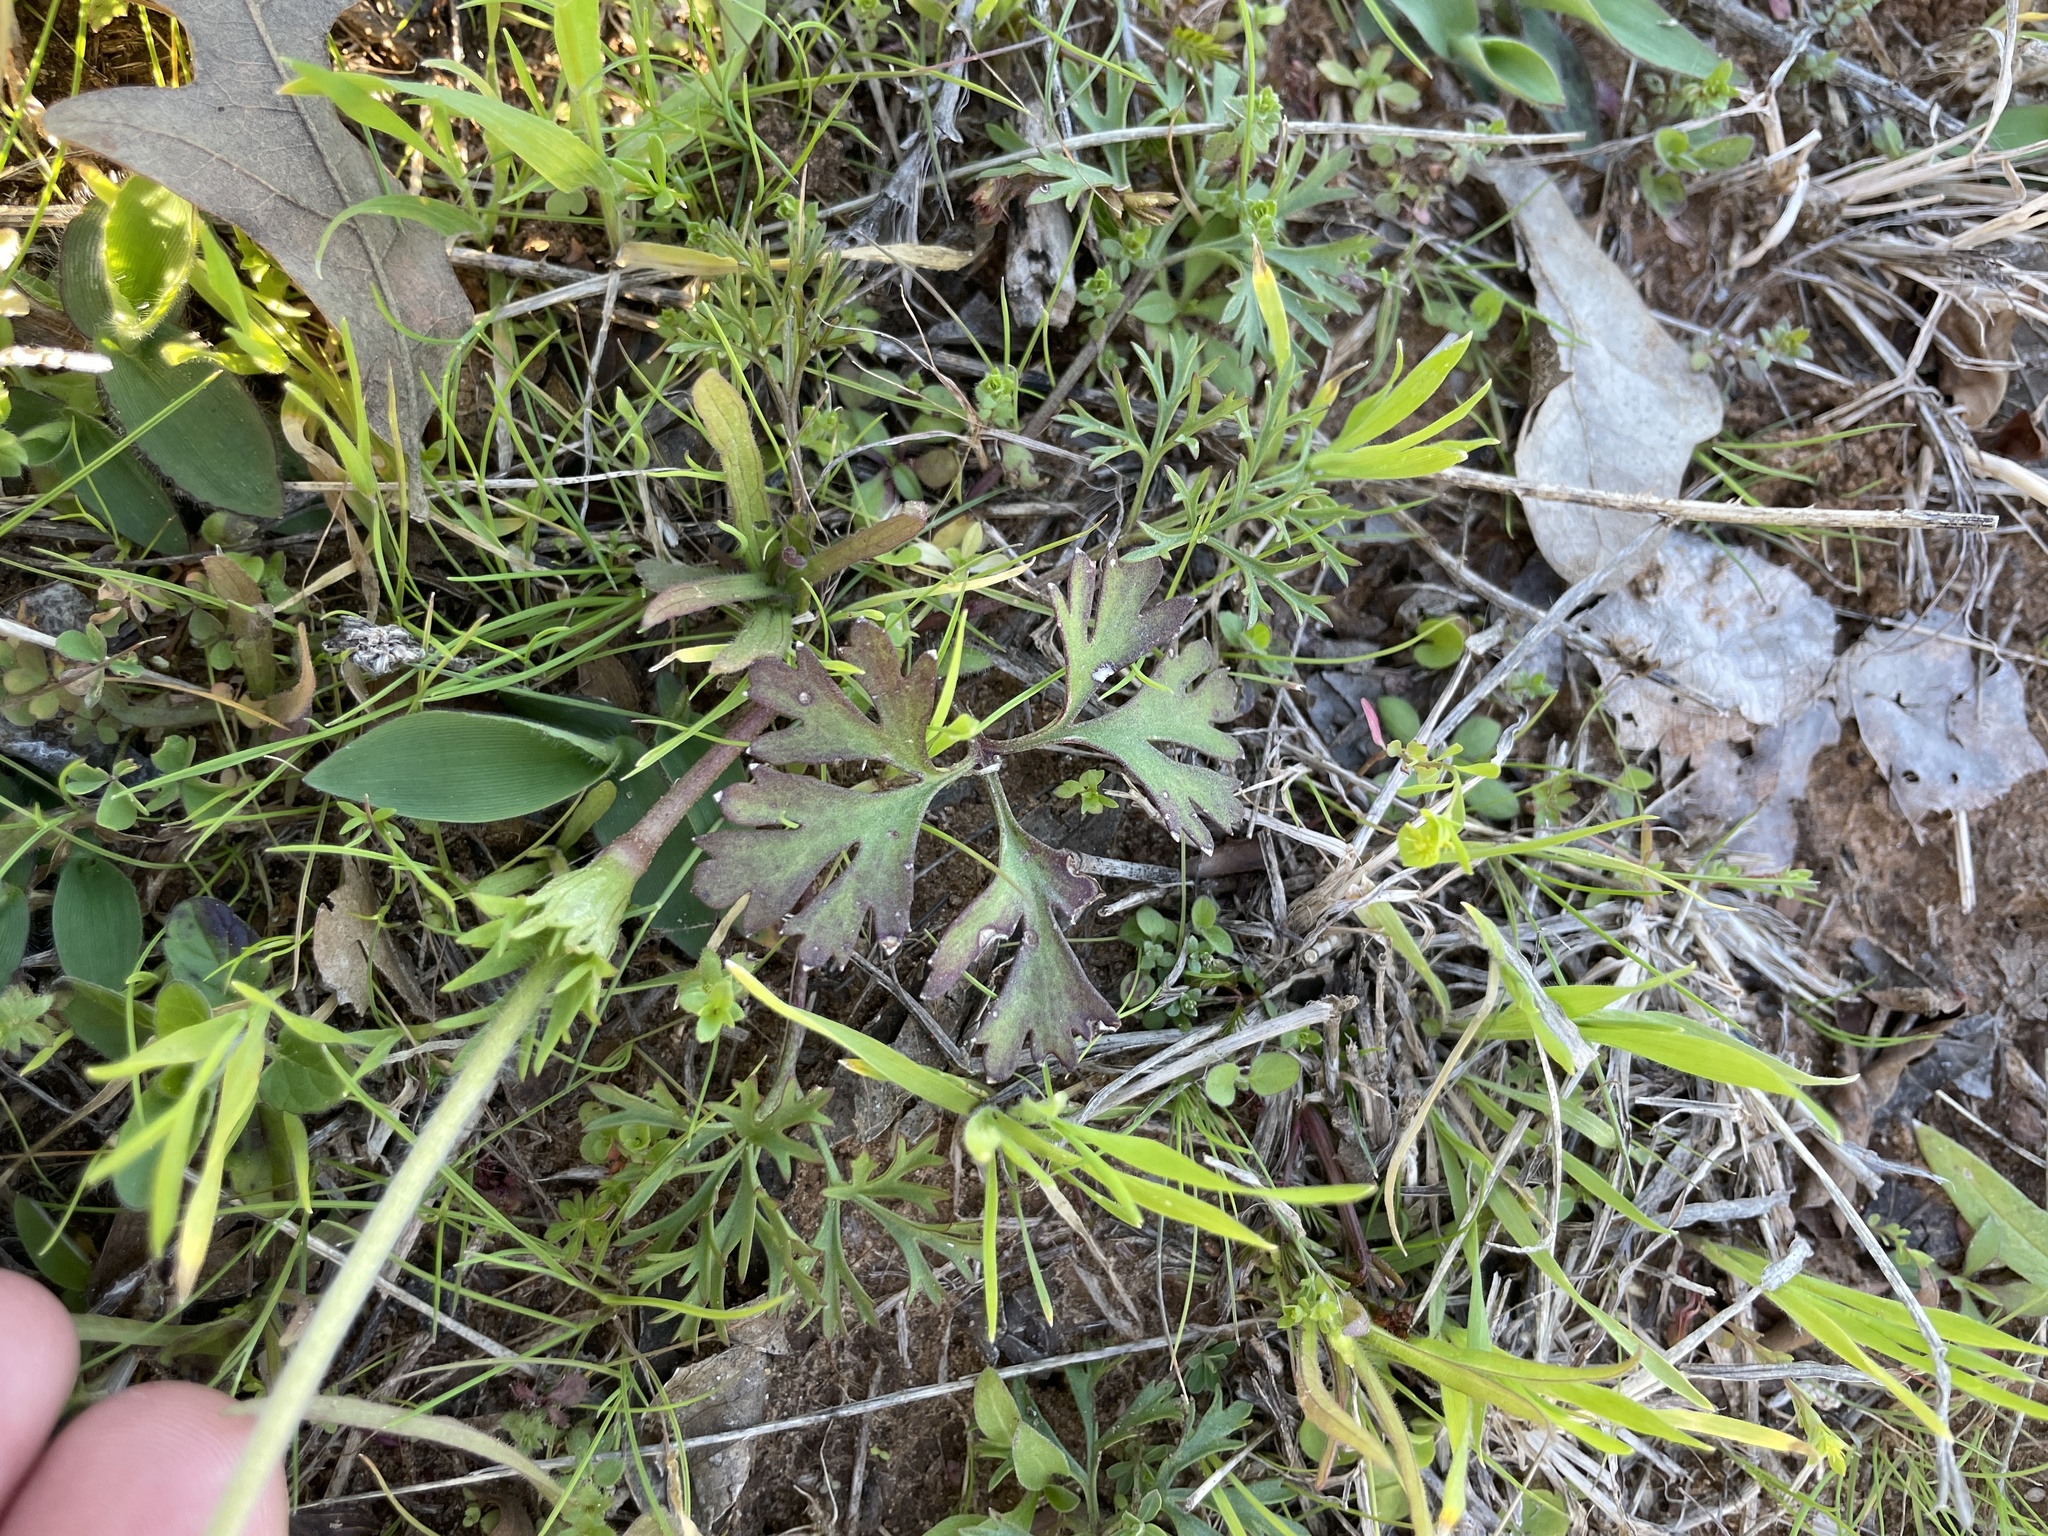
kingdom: Plantae
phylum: Tracheophyta
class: Magnoliopsida
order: Ranunculales
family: Ranunculaceae
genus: Anemone
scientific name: Anemone caroliniana
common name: Carolina anemone
